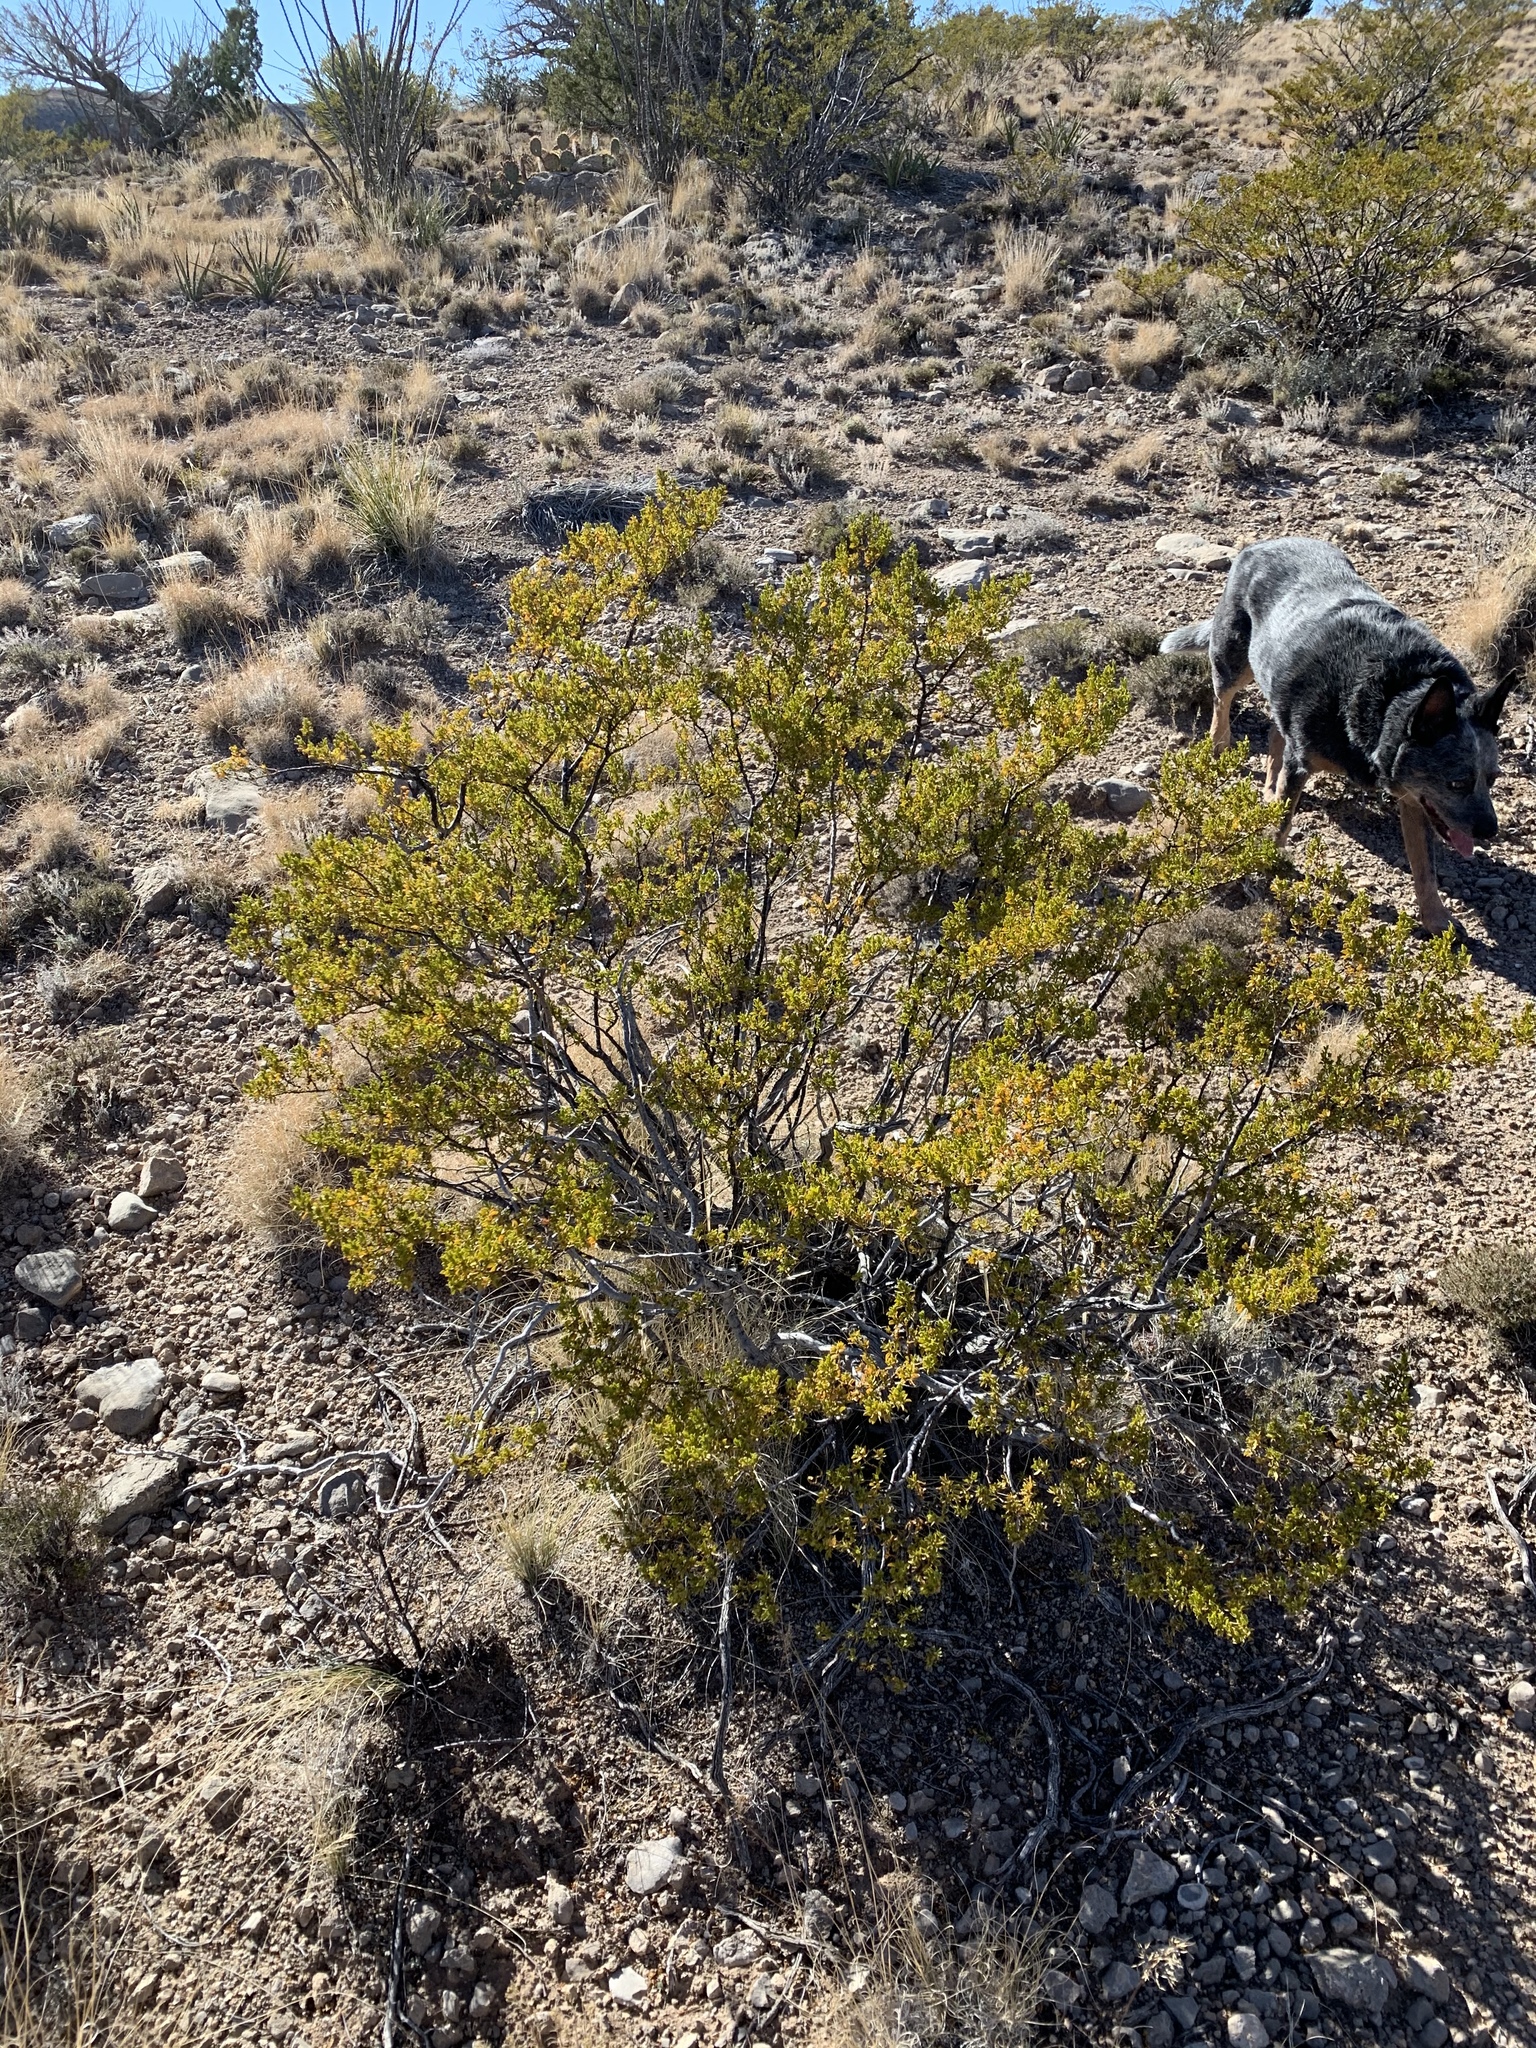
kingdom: Plantae
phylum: Tracheophyta
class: Magnoliopsida
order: Zygophyllales
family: Zygophyllaceae
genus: Larrea
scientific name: Larrea tridentata
